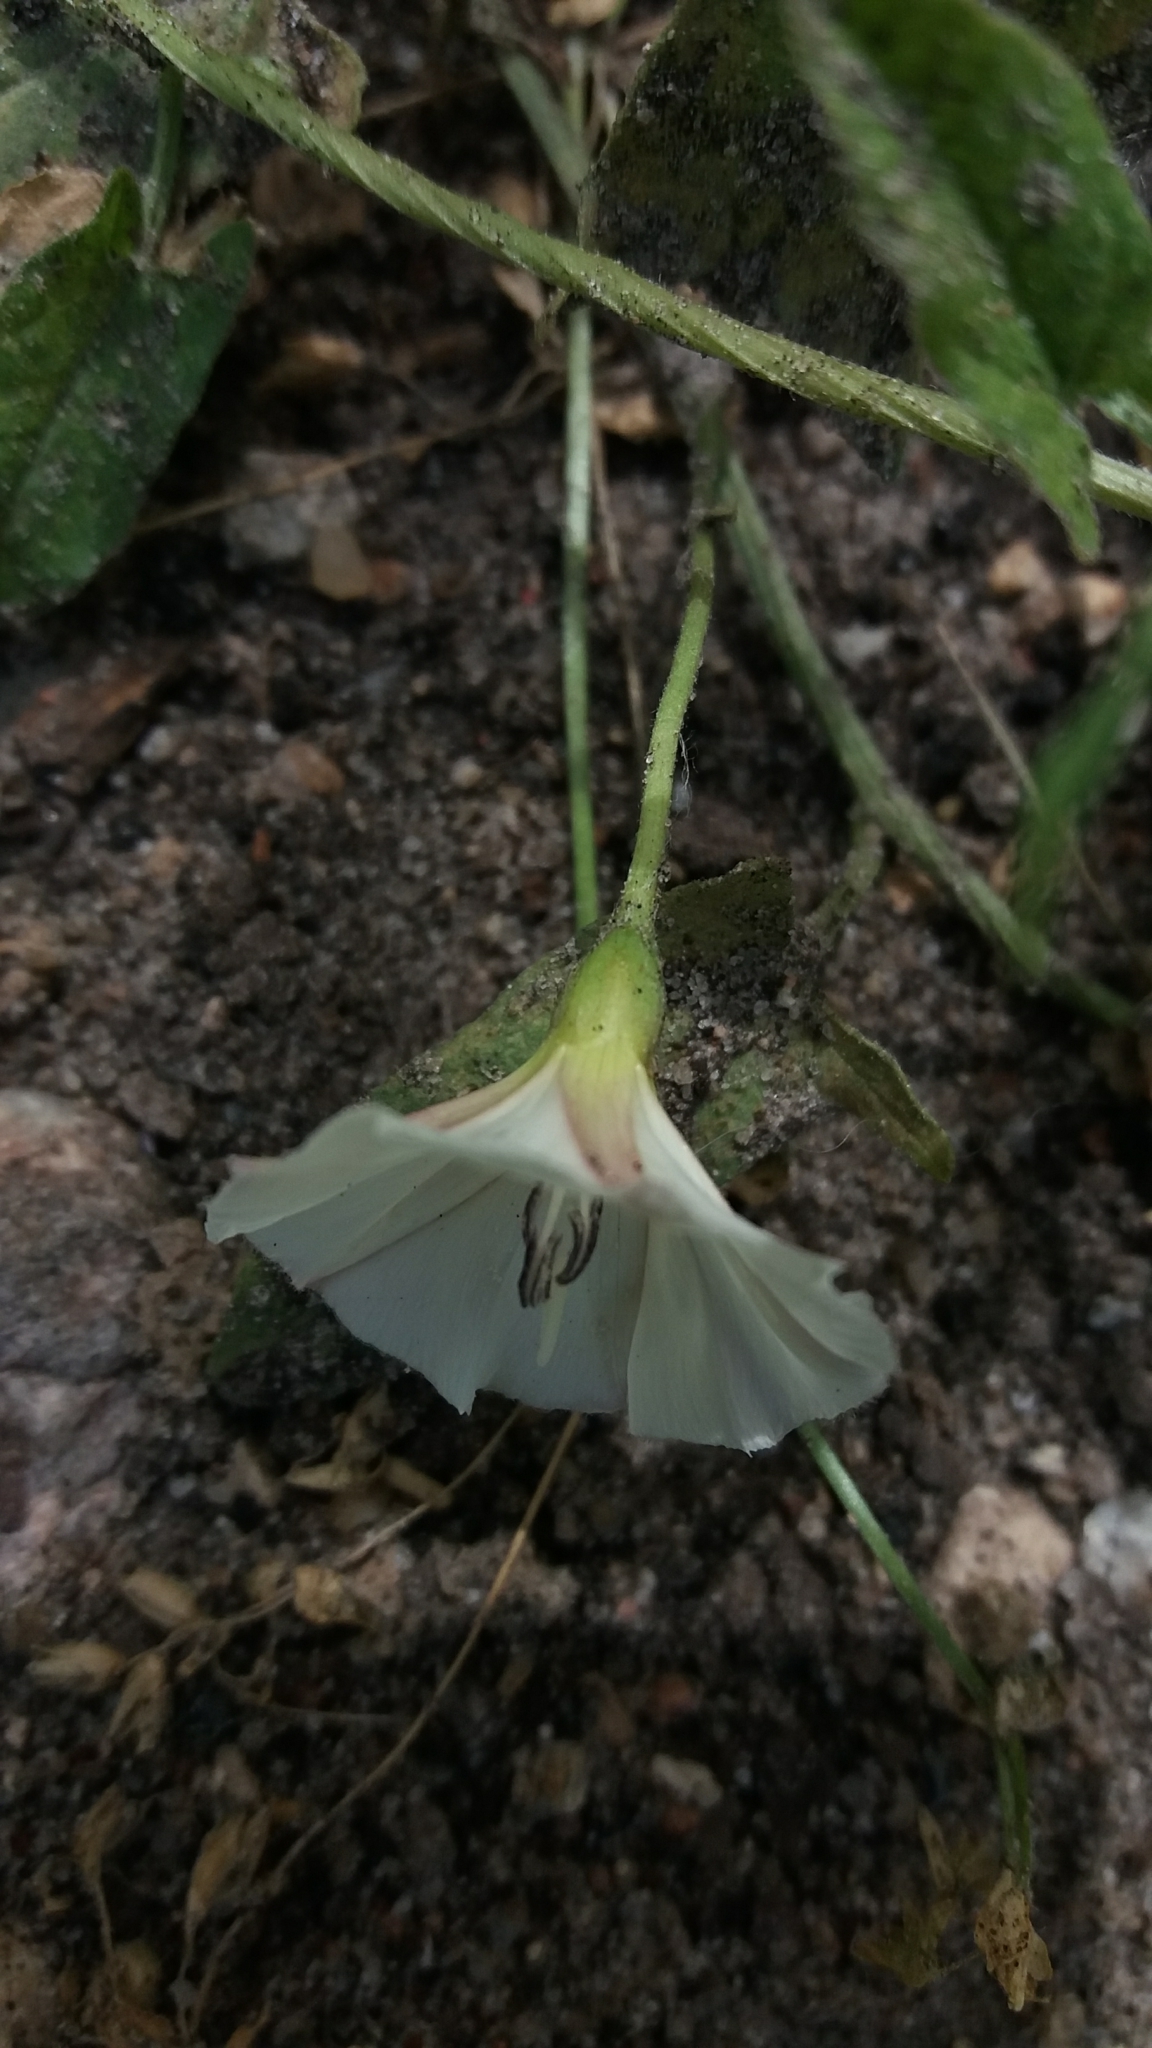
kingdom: Plantae
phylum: Tracheophyta
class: Magnoliopsida
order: Solanales
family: Convolvulaceae
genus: Convolvulus
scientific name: Convolvulus arvensis
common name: Field bindweed
